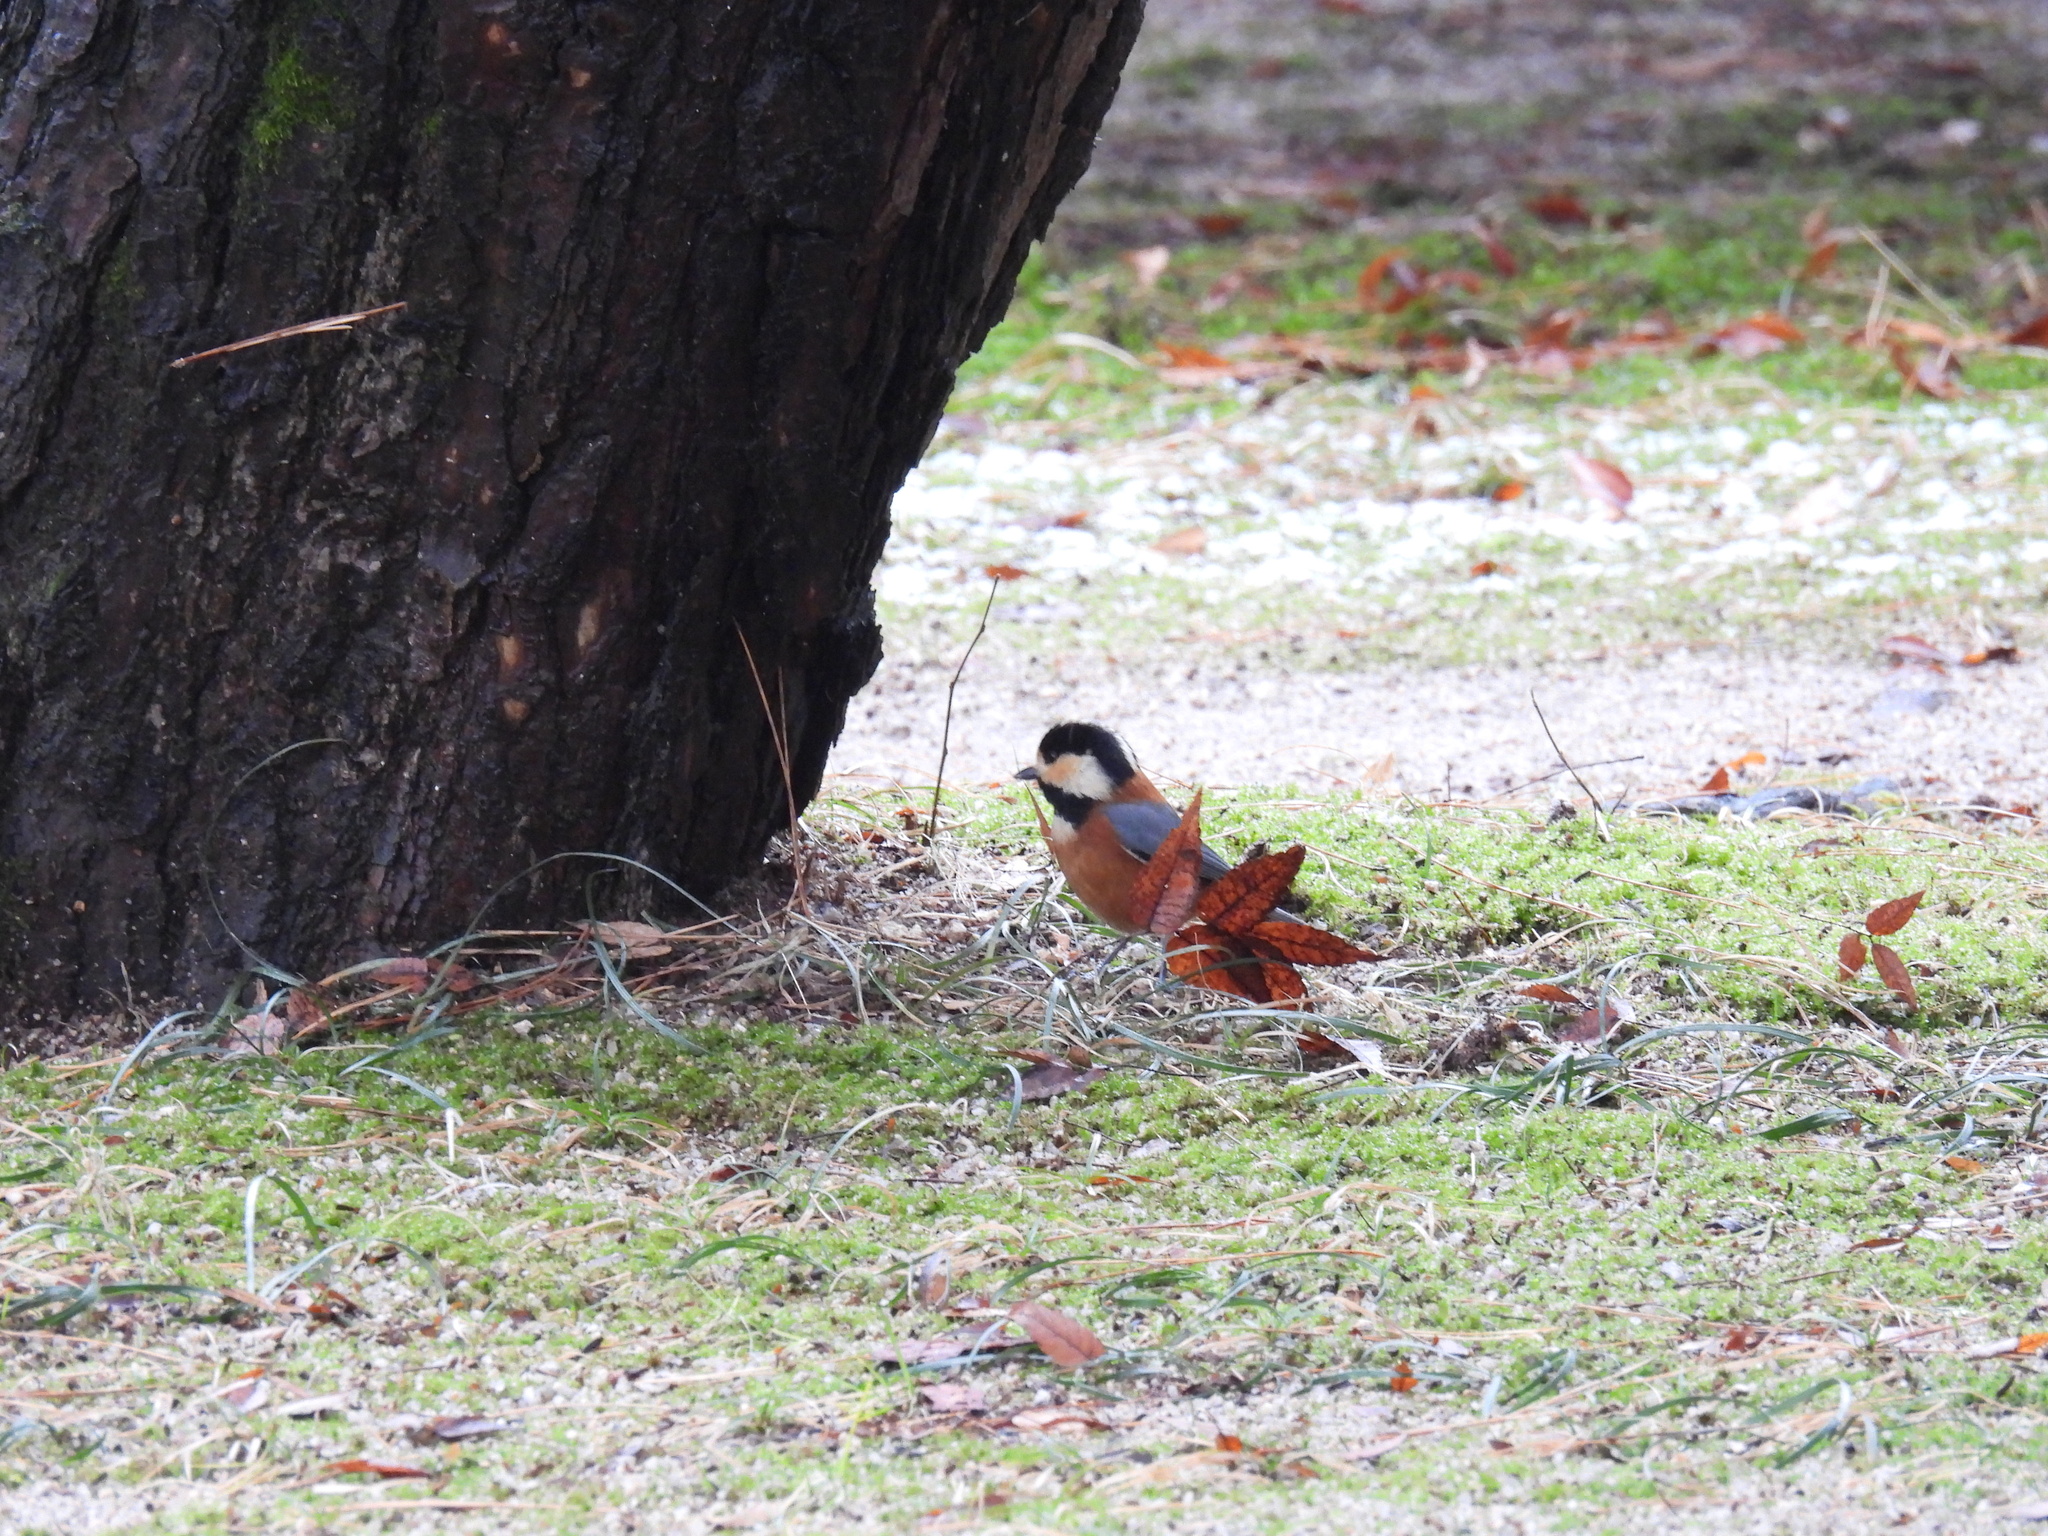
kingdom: Animalia
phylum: Chordata
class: Aves
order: Passeriformes
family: Paridae
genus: Poecile
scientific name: Poecile varius
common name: Varied tit
